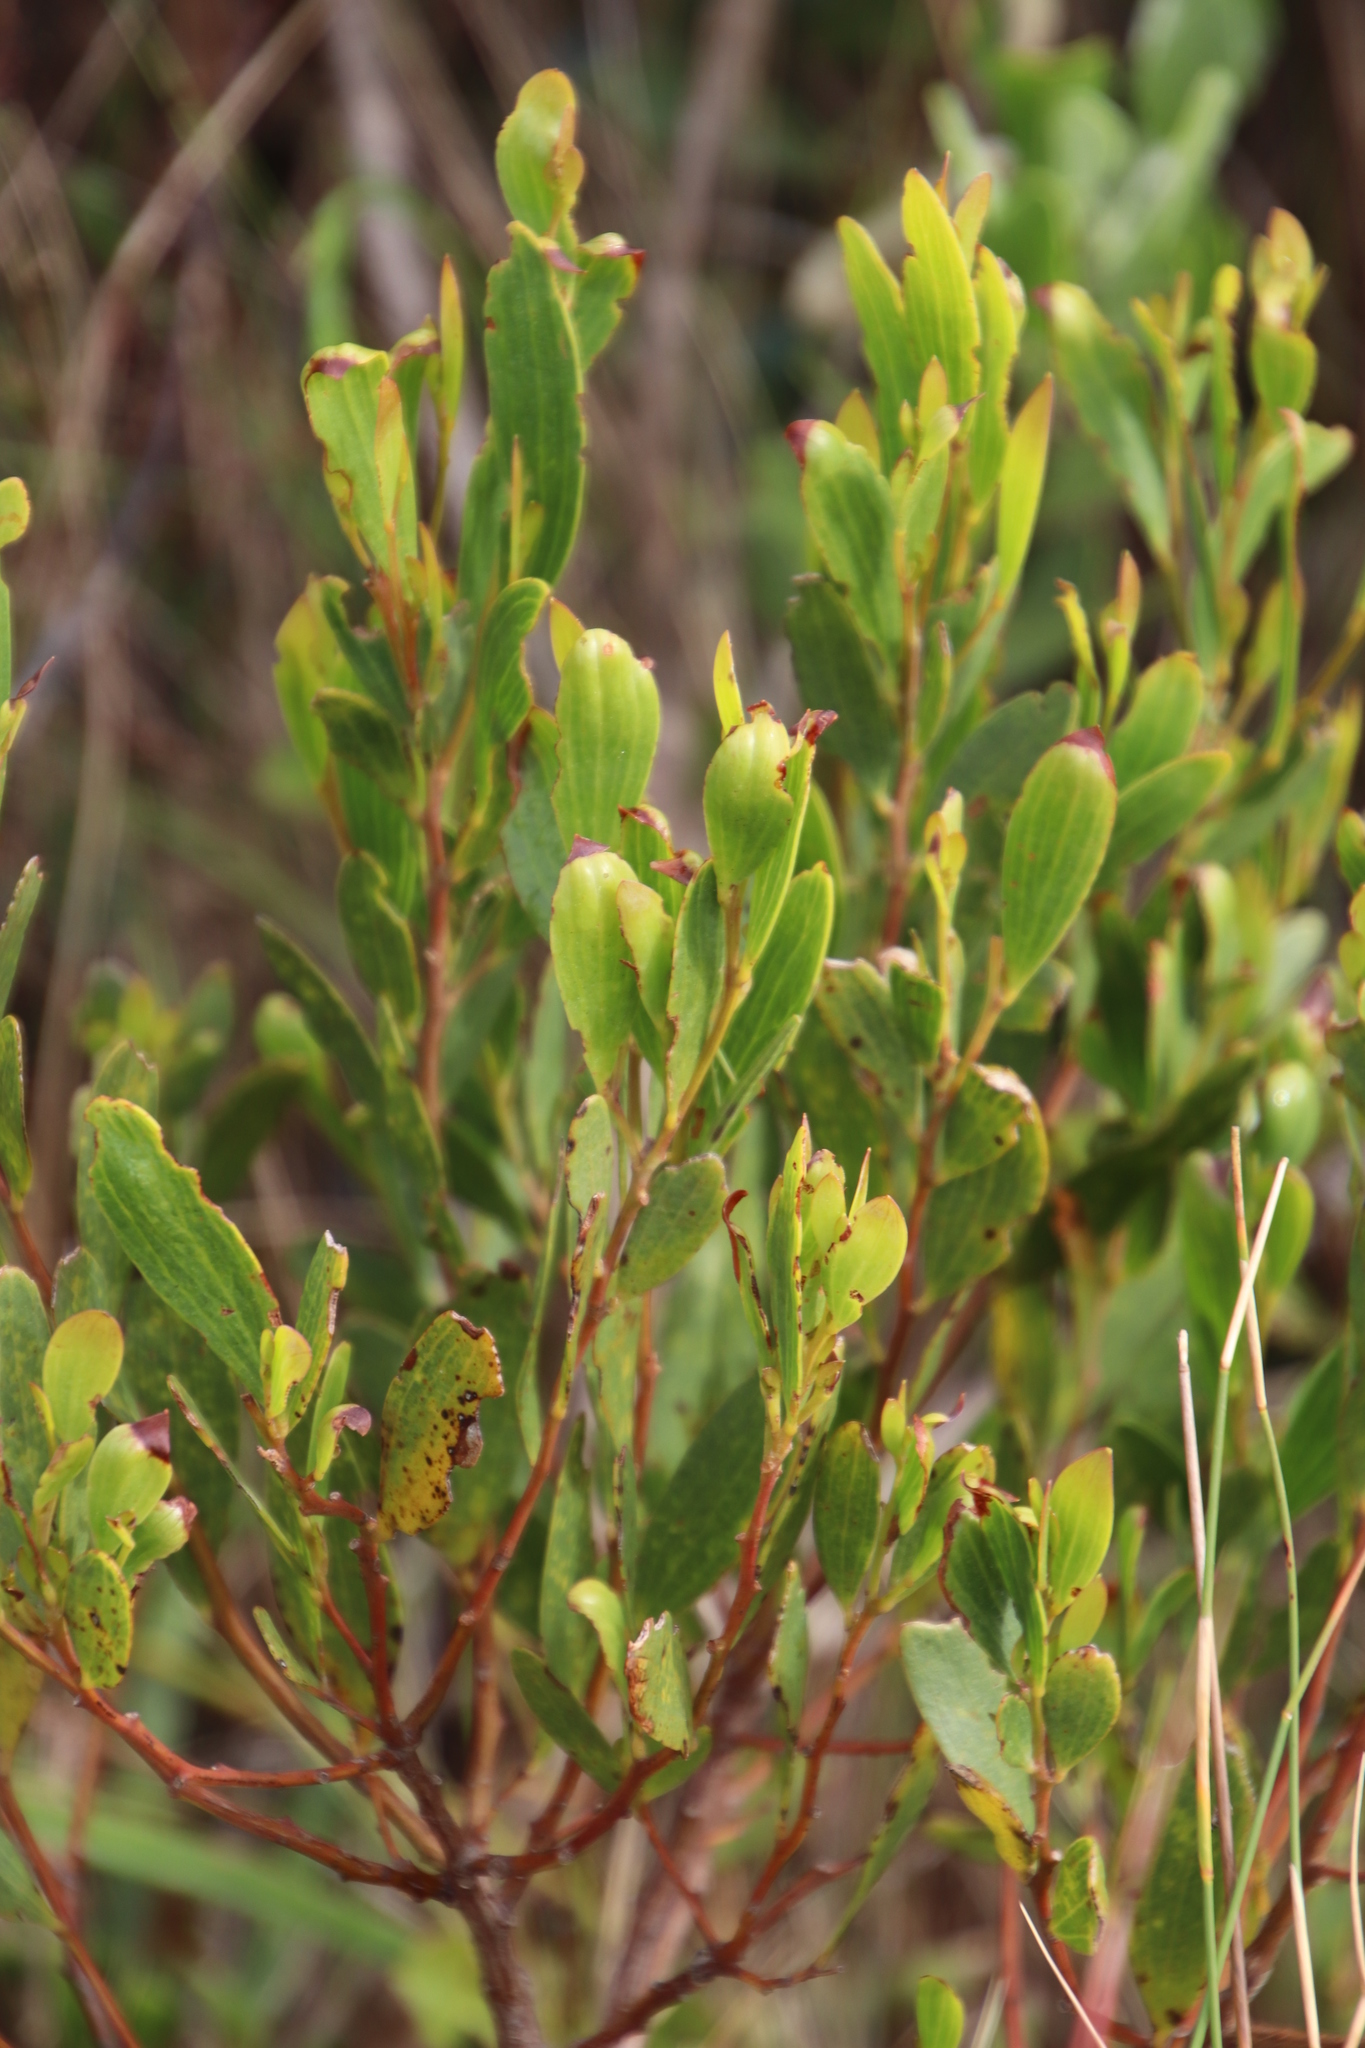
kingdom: Plantae
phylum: Tracheophyta
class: Magnoliopsida
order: Fabales
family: Fabaceae
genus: Acacia
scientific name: Acacia cyclops
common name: Coastal wattle
